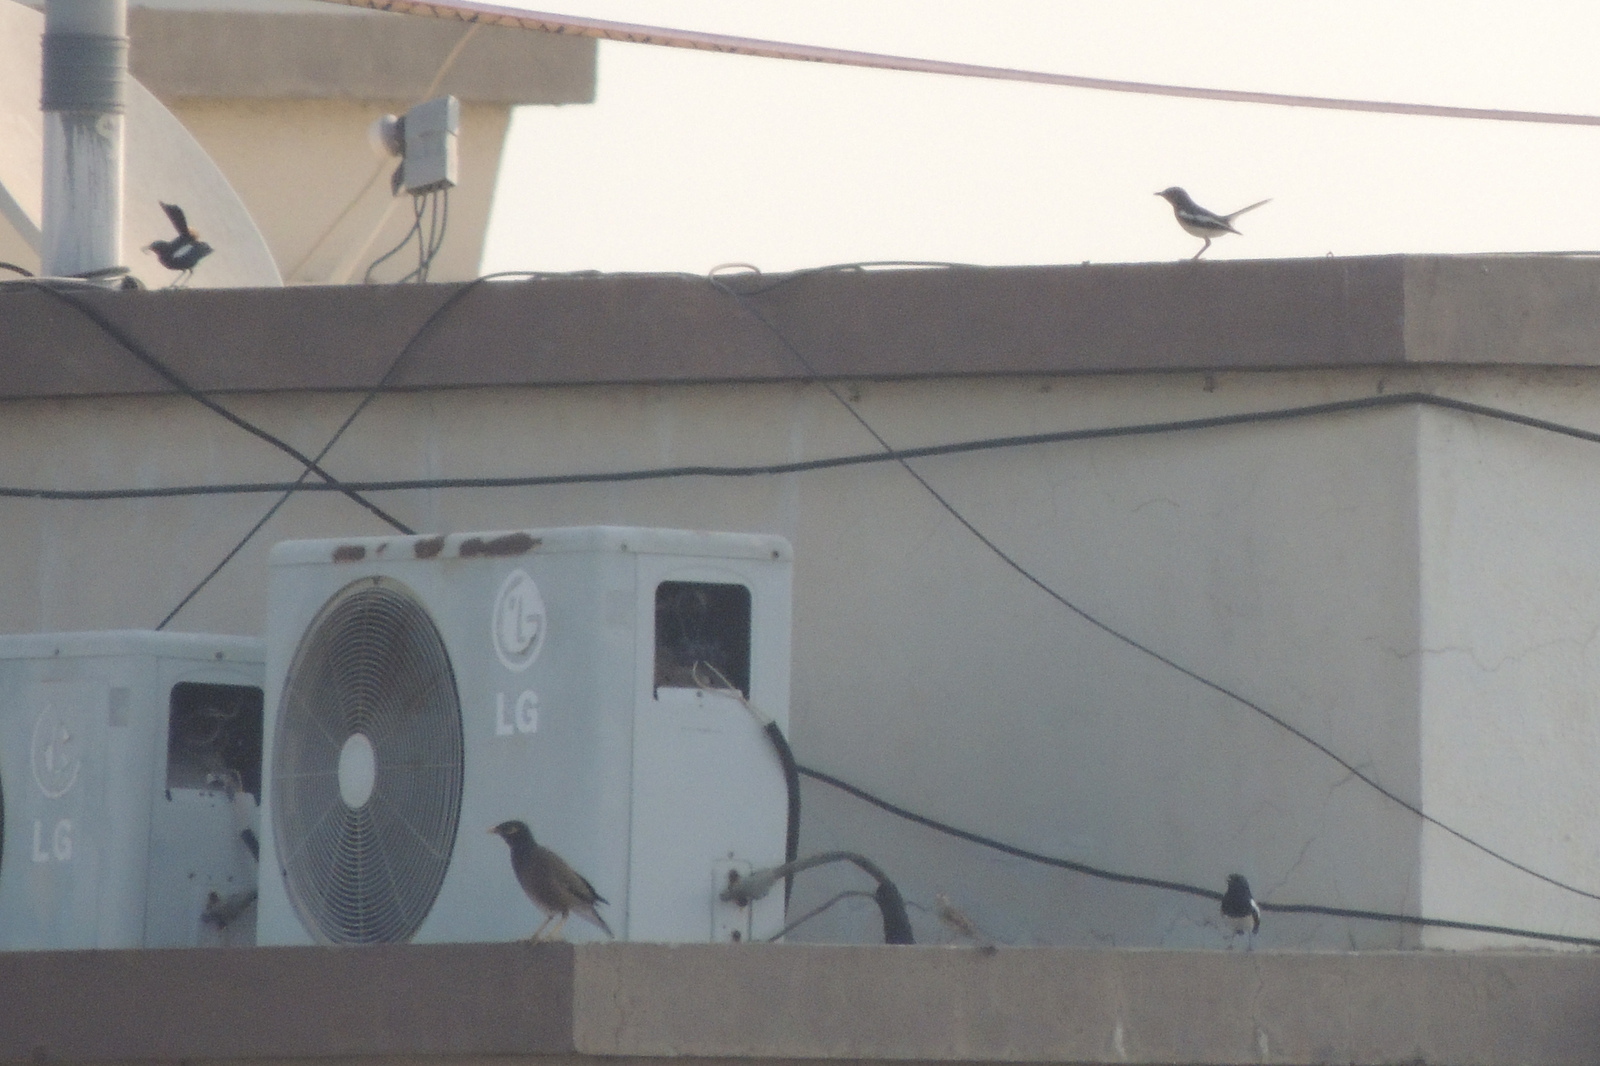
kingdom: Animalia
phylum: Chordata
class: Aves
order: Passeriformes
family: Sturnidae
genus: Acridotheres
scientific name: Acridotheres tristis
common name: Common myna
